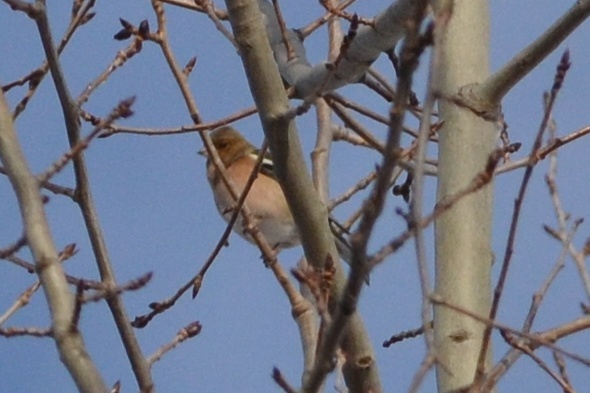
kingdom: Animalia
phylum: Chordata
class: Aves
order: Passeriformes
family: Fringillidae
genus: Fringilla
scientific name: Fringilla coelebs
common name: Common chaffinch
